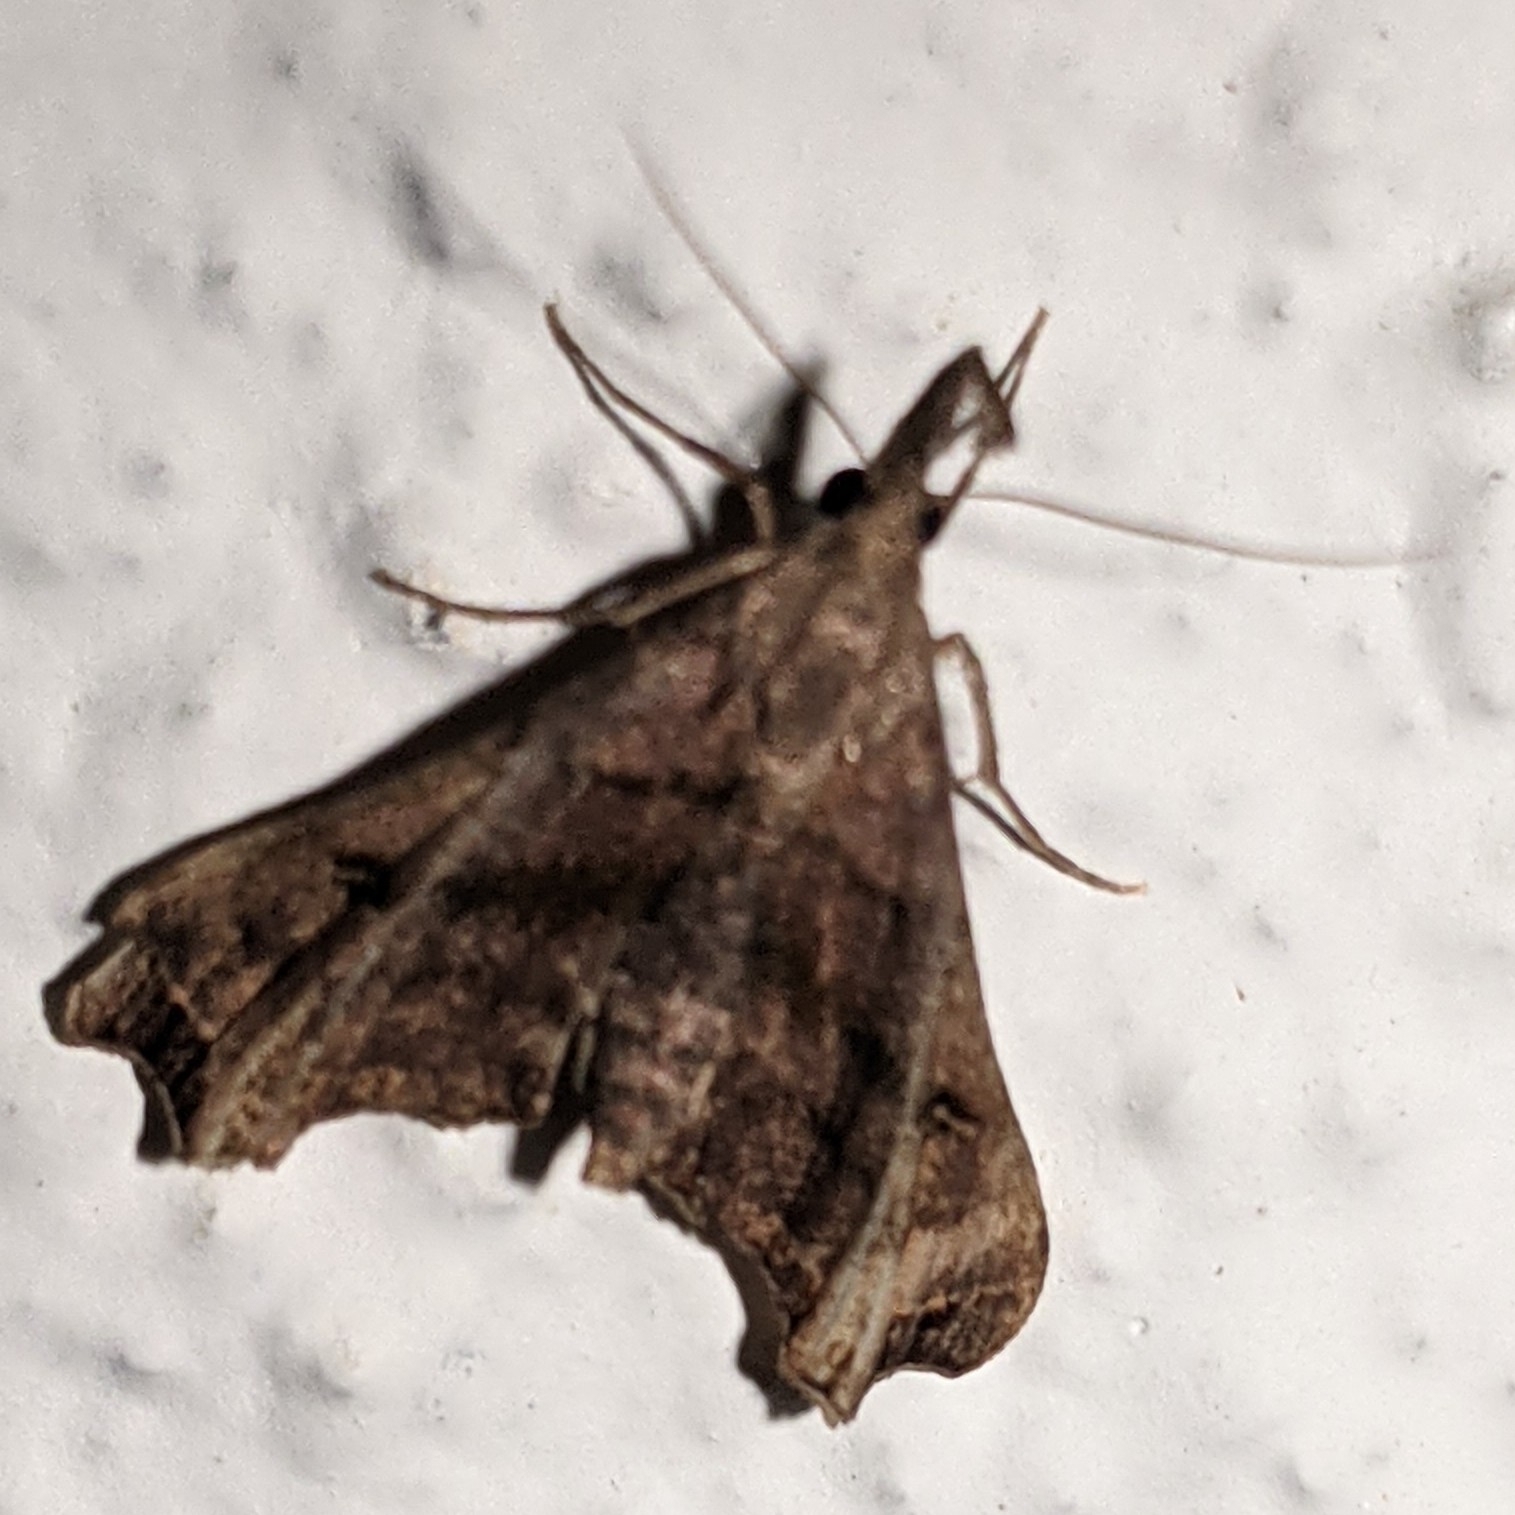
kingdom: Animalia
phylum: Arthropoda
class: Insecta
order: Lepidoptera
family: Erebidae
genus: Palthis
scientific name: Palthis asopialis
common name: Faint-spotted palthis moth
